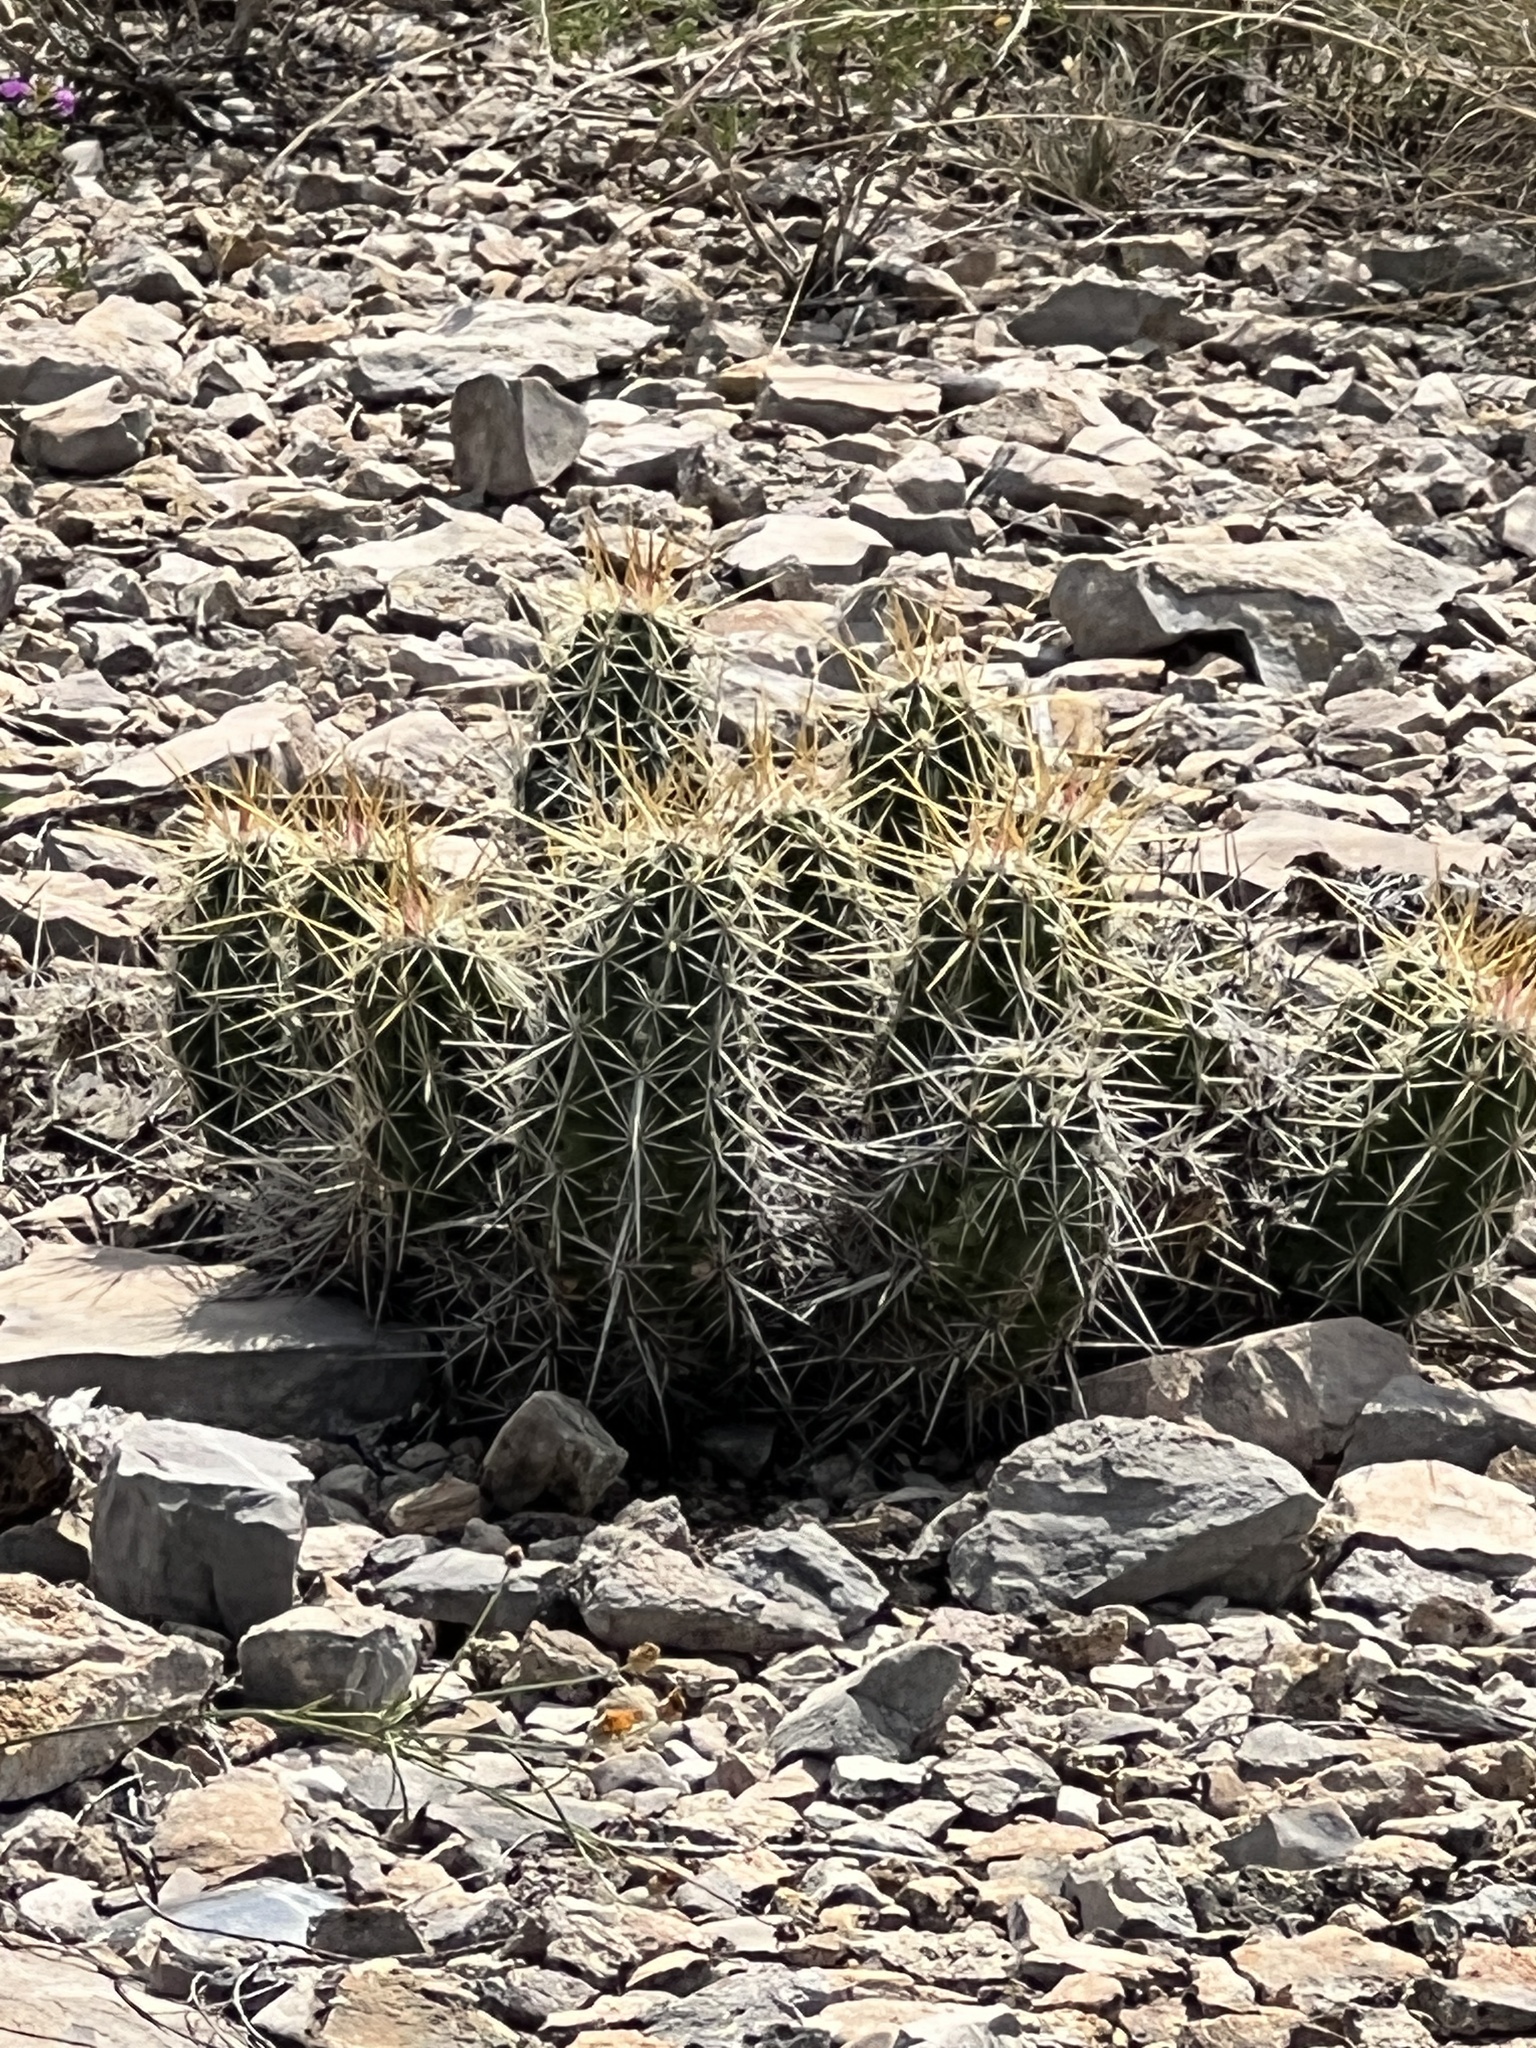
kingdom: Plantae
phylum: Tracheophyta
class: Magnoliopsida
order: Caryophyllales
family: Cactaceae
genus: Echinocereus
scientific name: Echinocereus enneacanthus
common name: Pitaya
